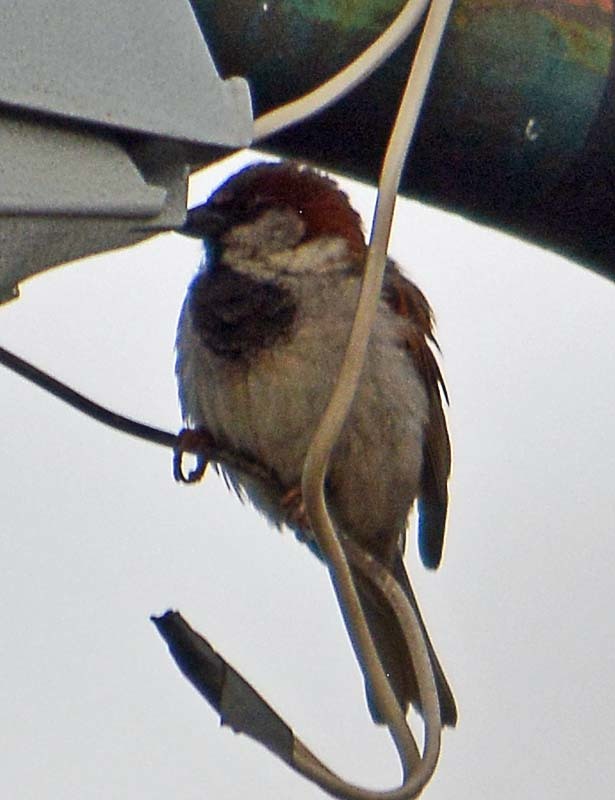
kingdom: Animalia
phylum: Chordata
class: Aves
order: Passeriformes
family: Passeridae
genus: Passer
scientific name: Passer domesticus
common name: House sparrow
